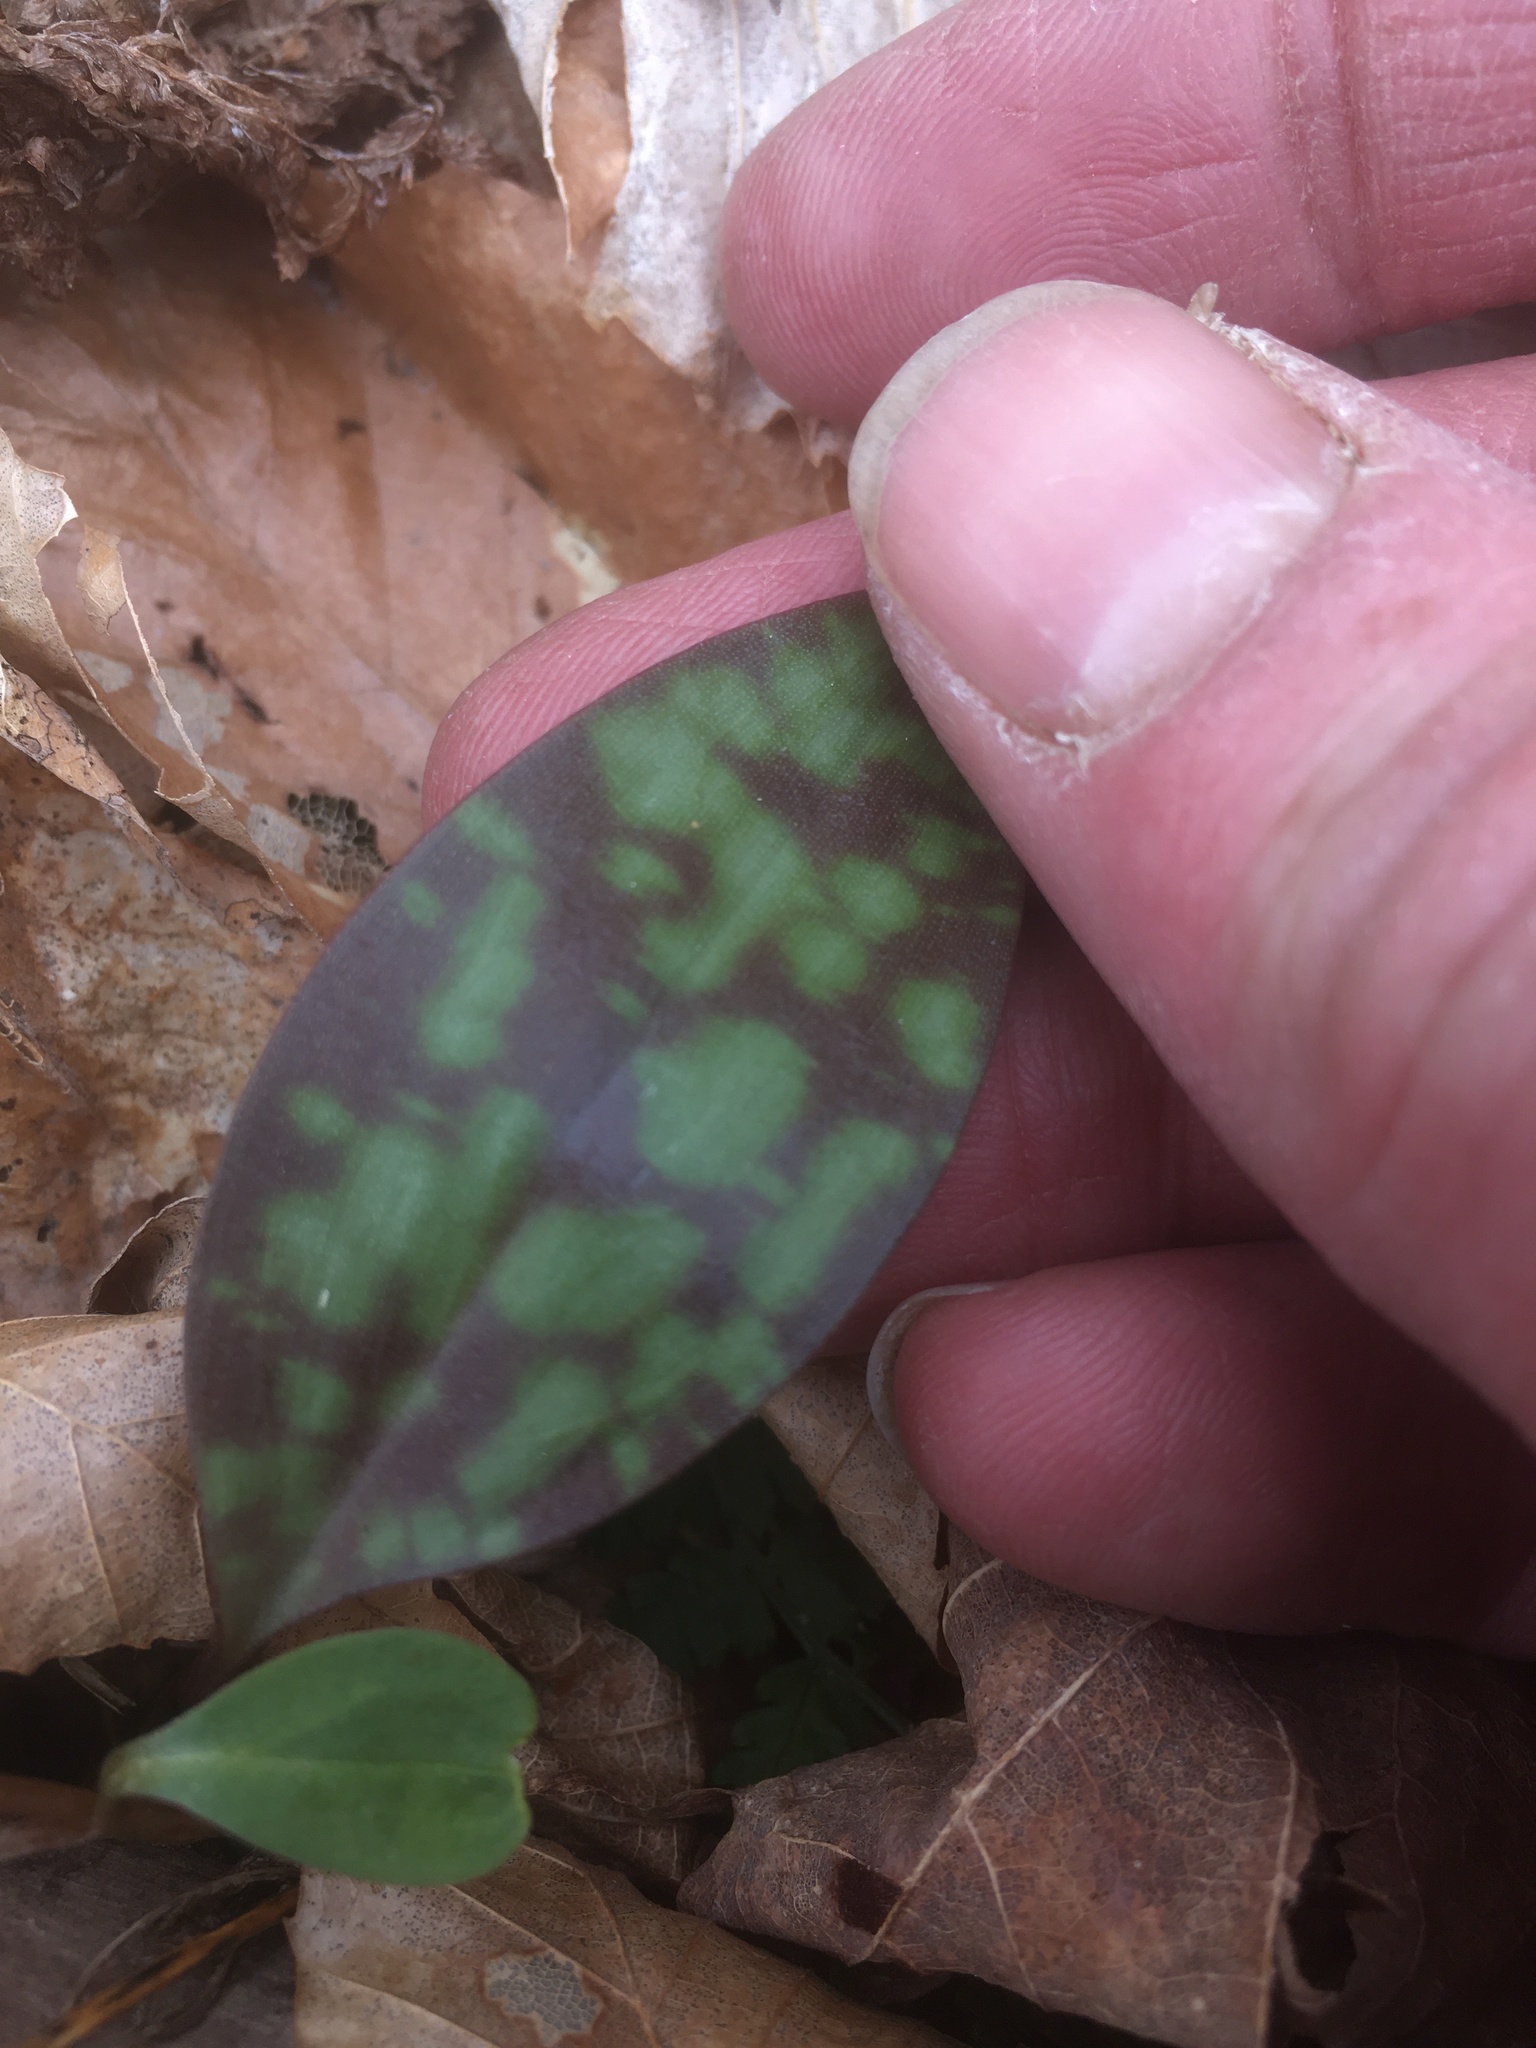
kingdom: Plantae
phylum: Tracheophyta
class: Liliopsida
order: Liliales
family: Liliaceae
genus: Erythronium
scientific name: Erythronium americanum
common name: Yellow adder's-tongue
